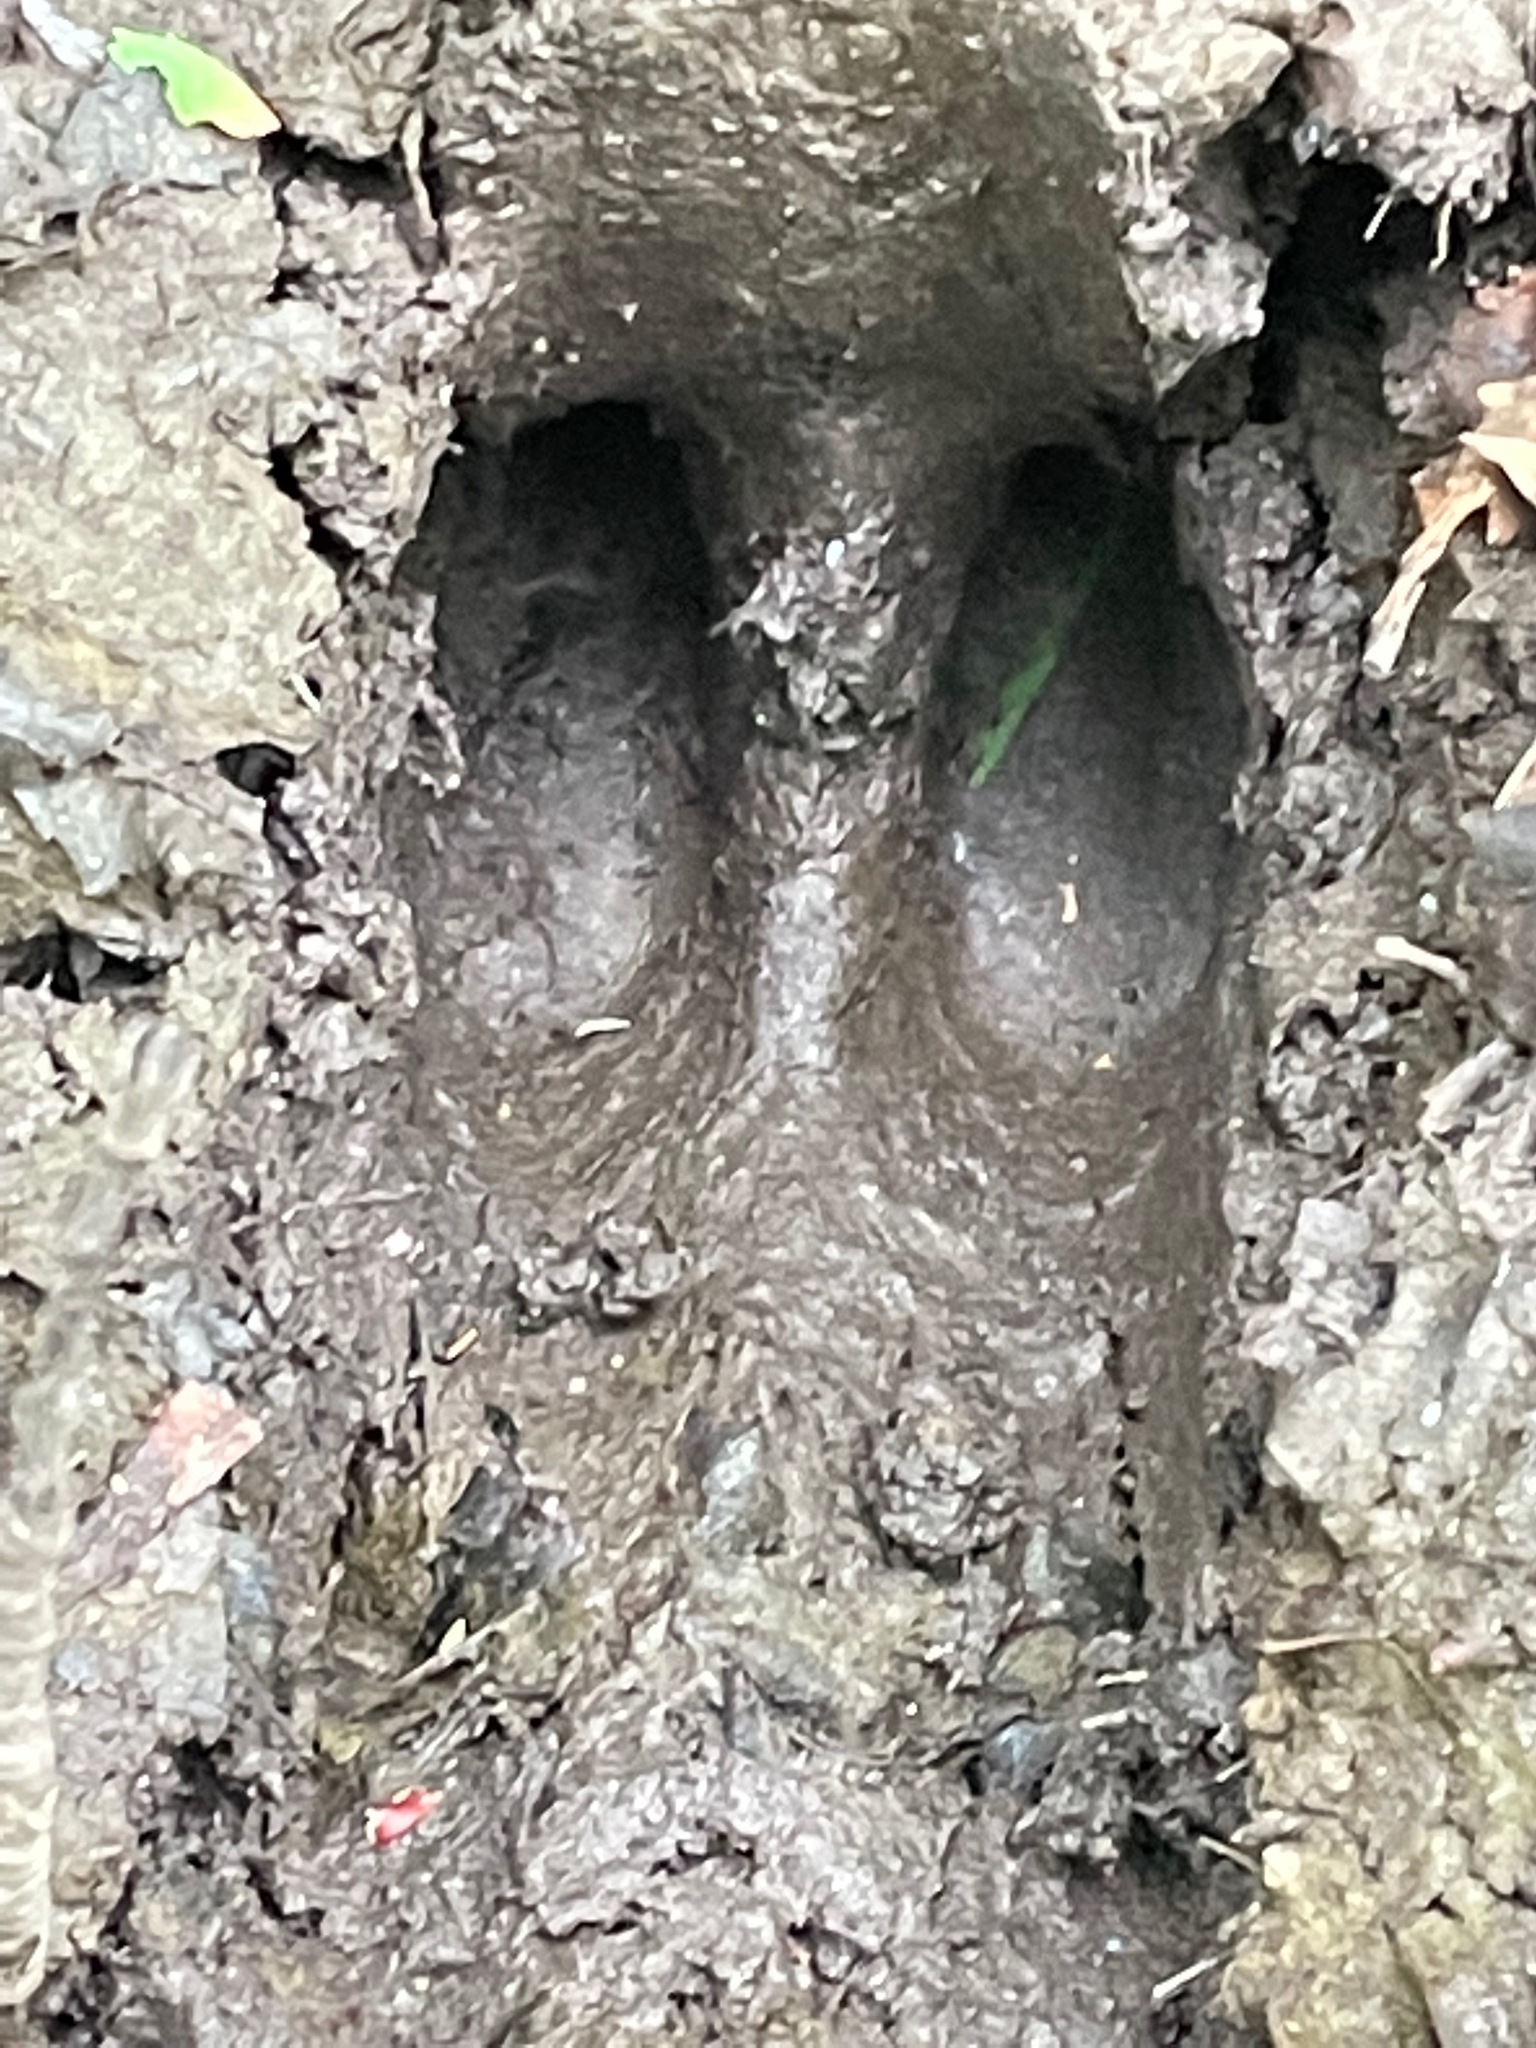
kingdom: Animalia
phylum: Chordata
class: Mammalia
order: Artiodactyla
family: Cervidae
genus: Odocoileus
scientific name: Odocoileus virginianus
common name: White-tailed deer
